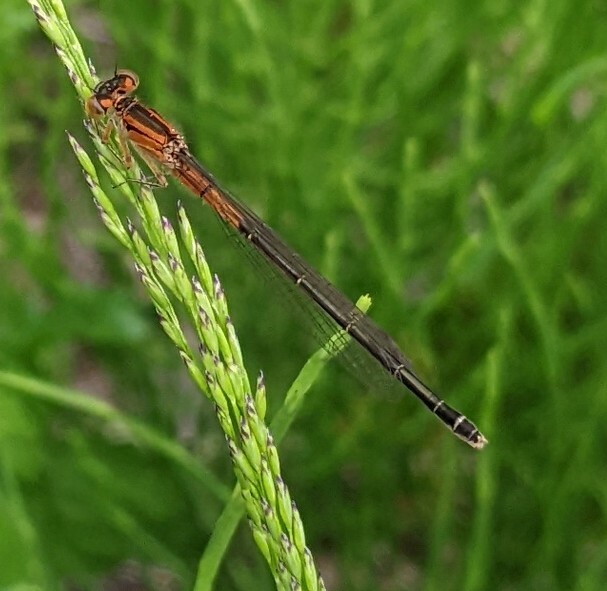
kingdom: Animalia
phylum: Arthropoda
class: Insecta
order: Odonata
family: Coenagrionidae
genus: Ischnura
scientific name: Ischnura verticalis
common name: Eastern forktail
